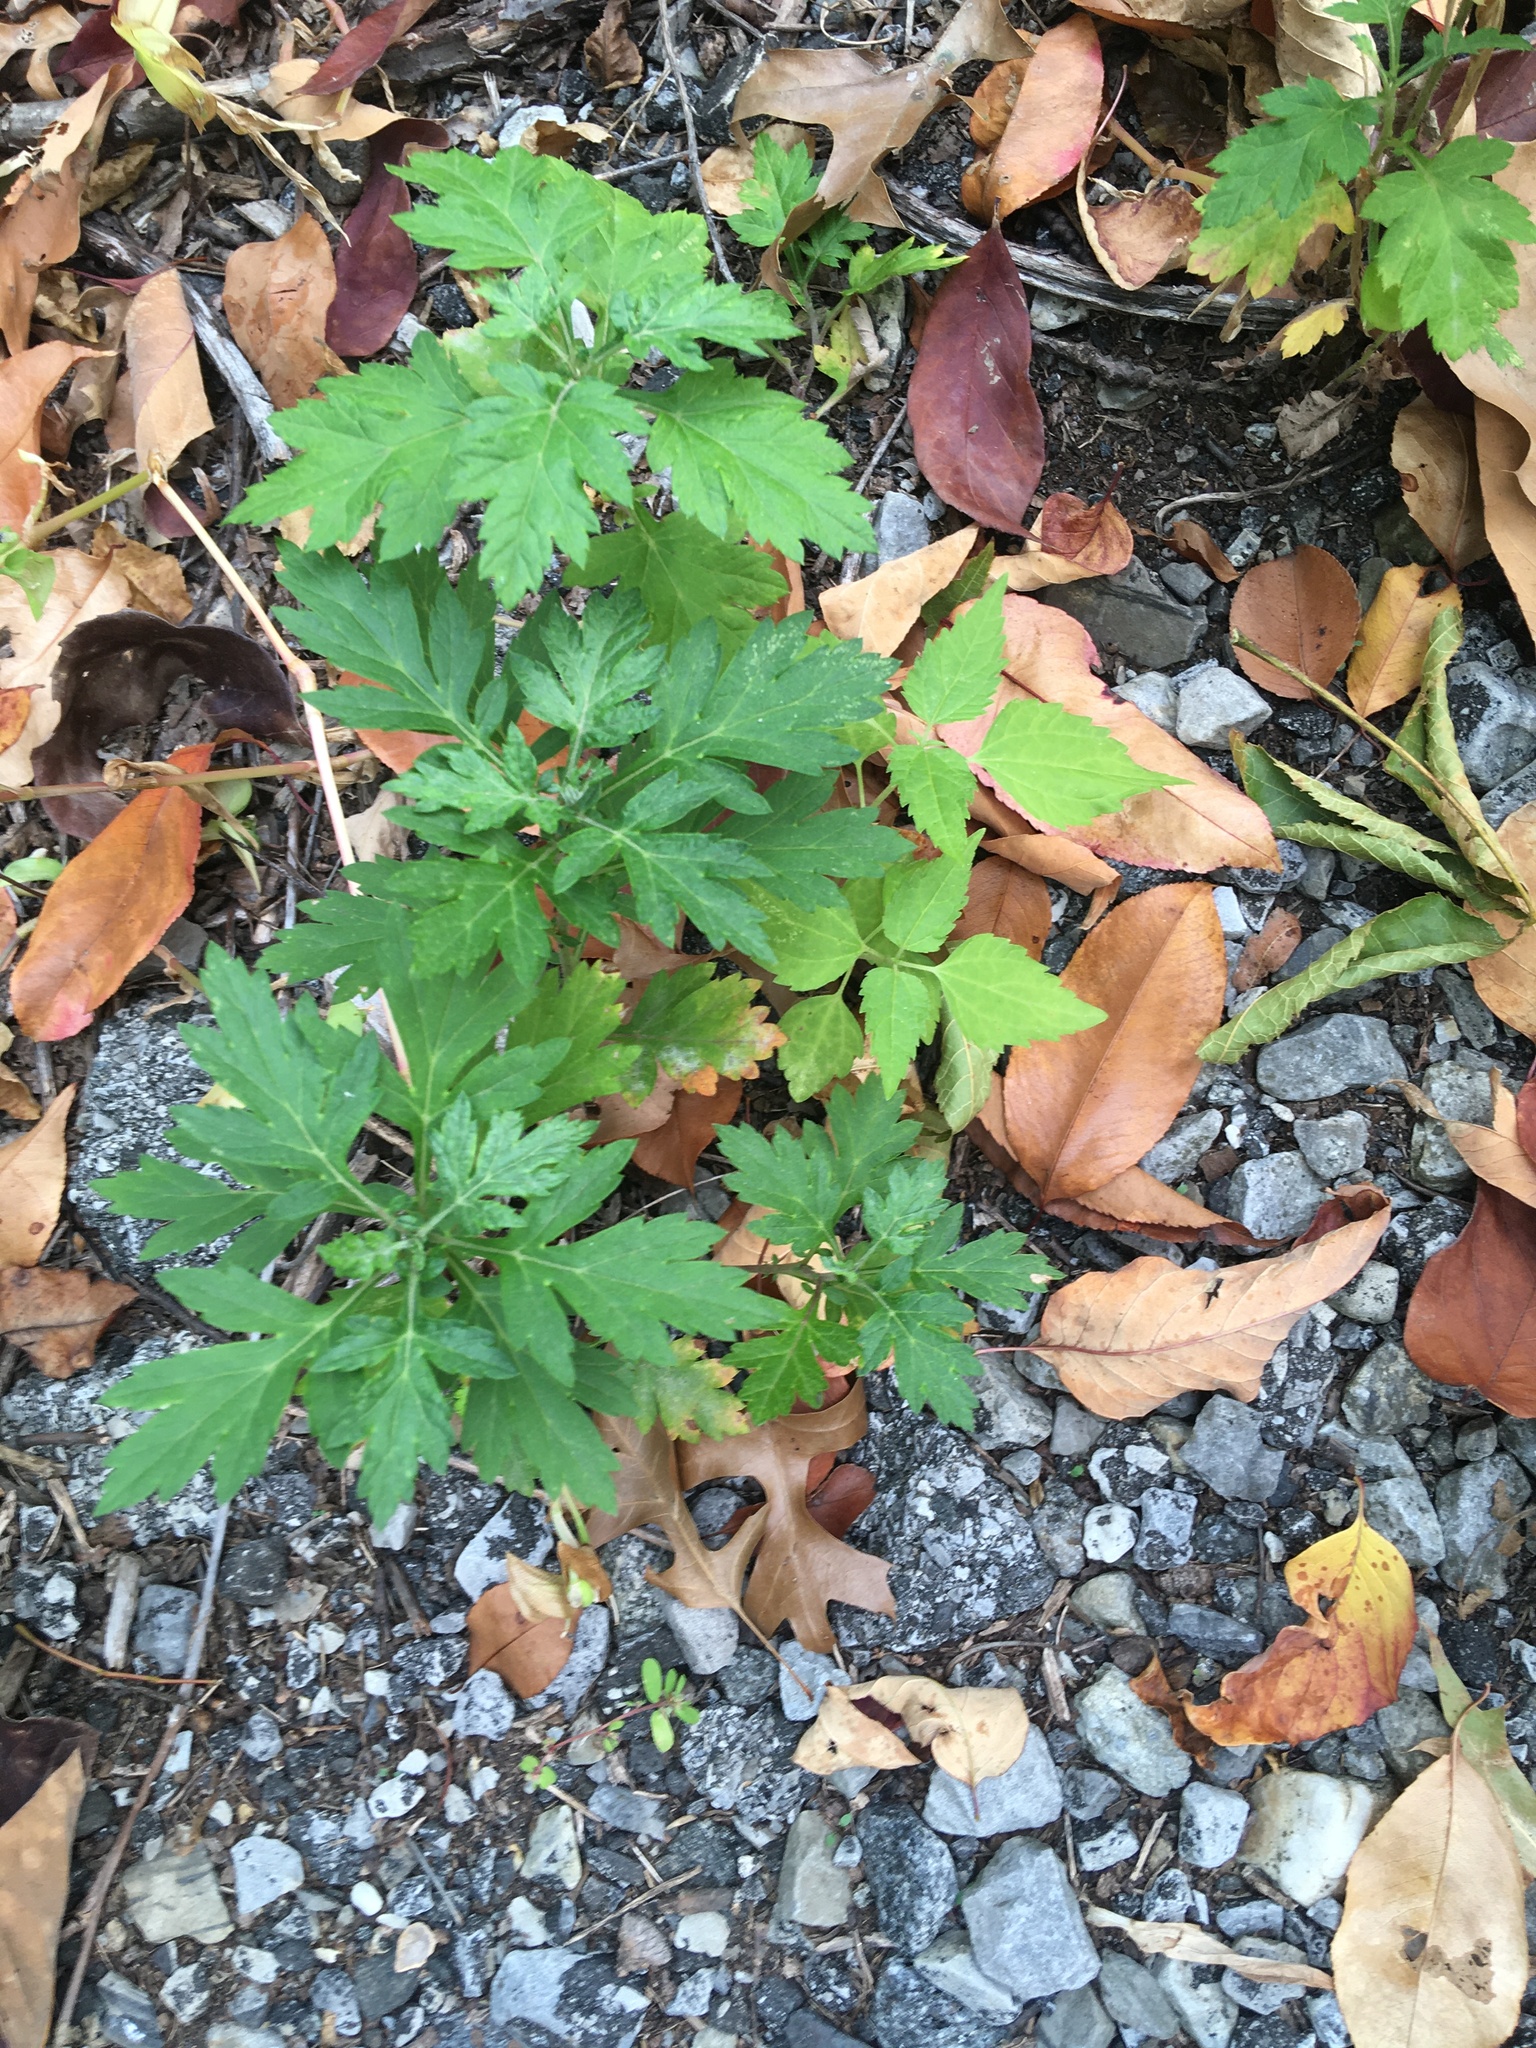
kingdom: Plantae
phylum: Tracheophyta
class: Magnoliopsida
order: Asterales
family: Asteraceae
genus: Artemisia
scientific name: Artemisia vulgaris
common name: Mugwort
